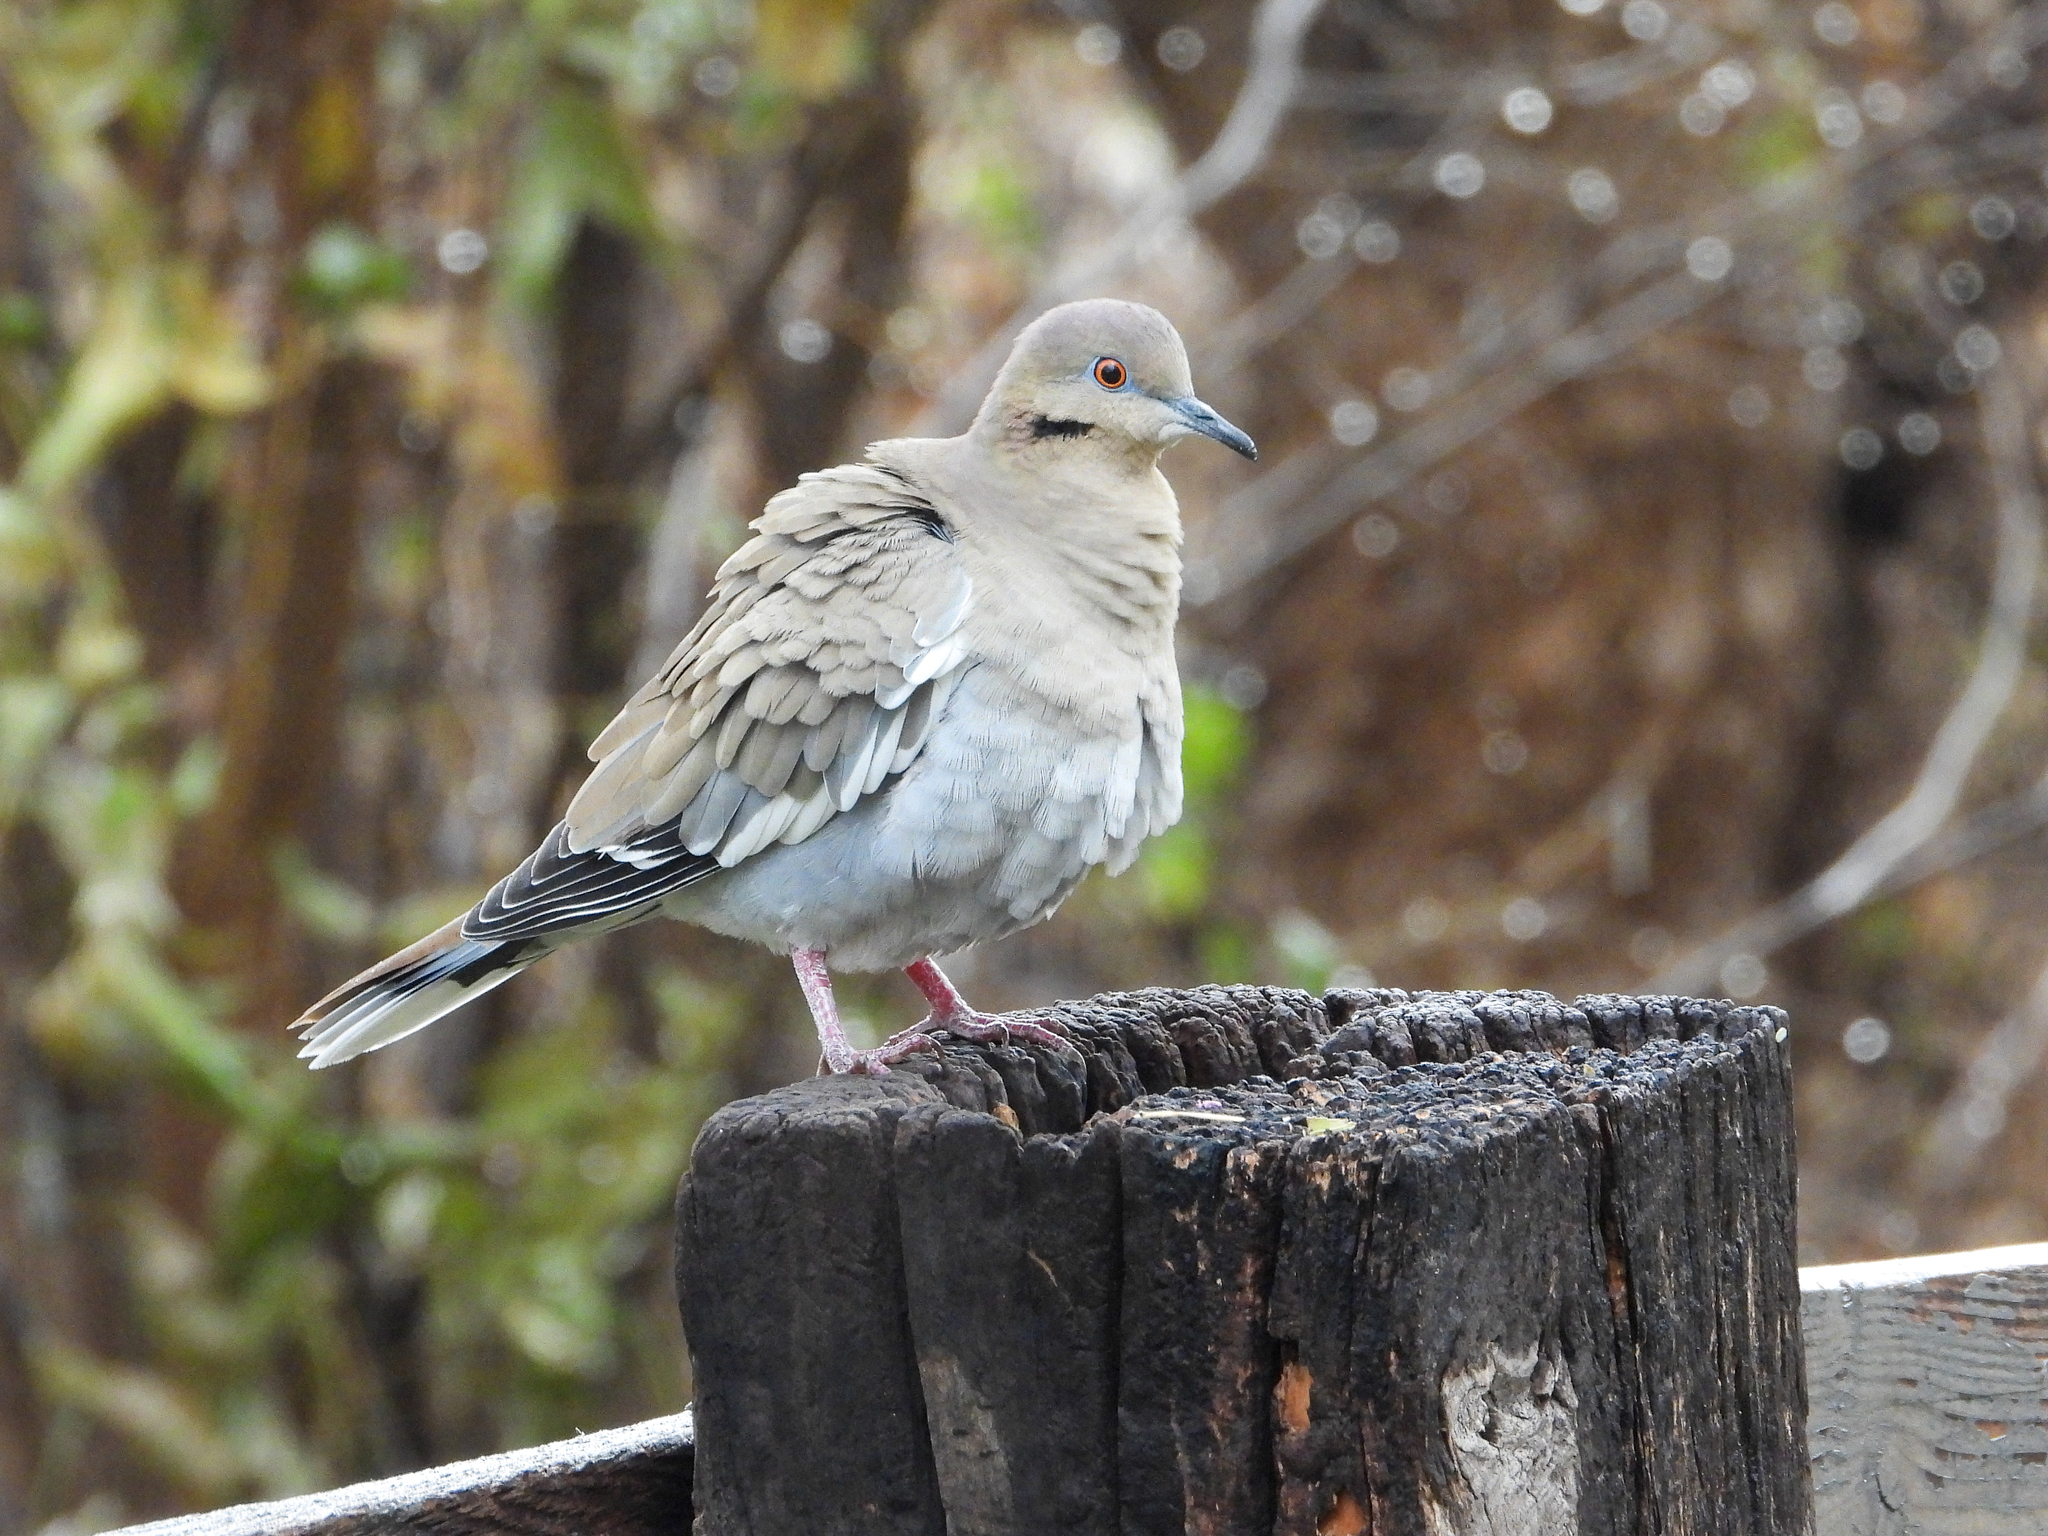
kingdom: Animalia
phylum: Chordata
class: Aves
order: Columbiformes
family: Columbidae
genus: Zenaida
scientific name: Zenaida asiatica
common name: White-winged dove
